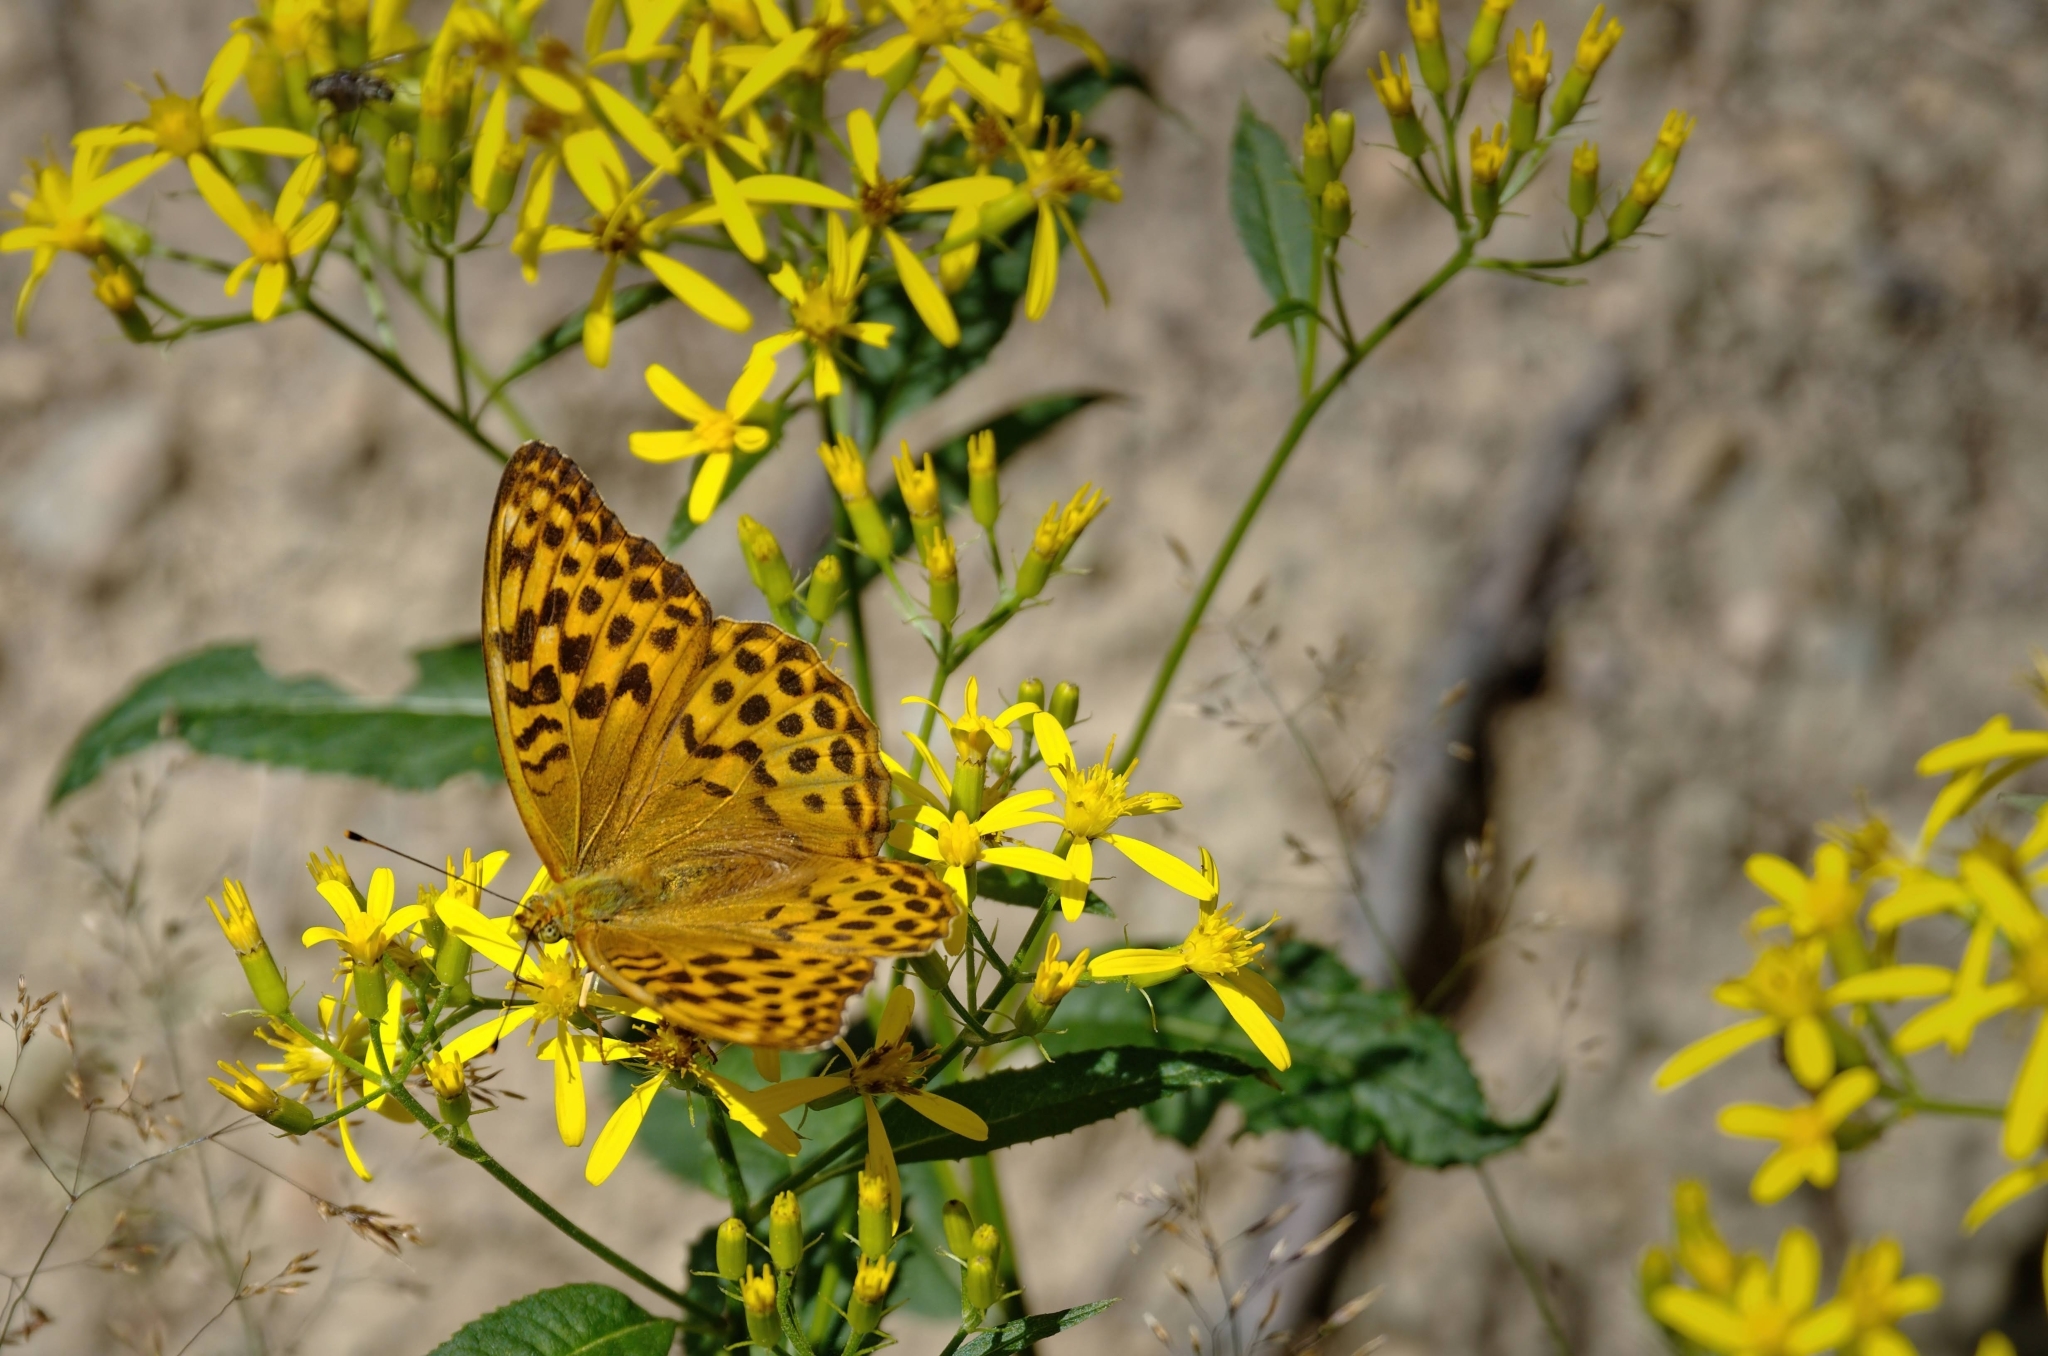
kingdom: Animalia
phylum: Arthropoda
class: Insecta
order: Lepidoptera
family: Nymphalidae
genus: Argynnis
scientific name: Argynnis paphia
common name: Silver-washed fritillary
